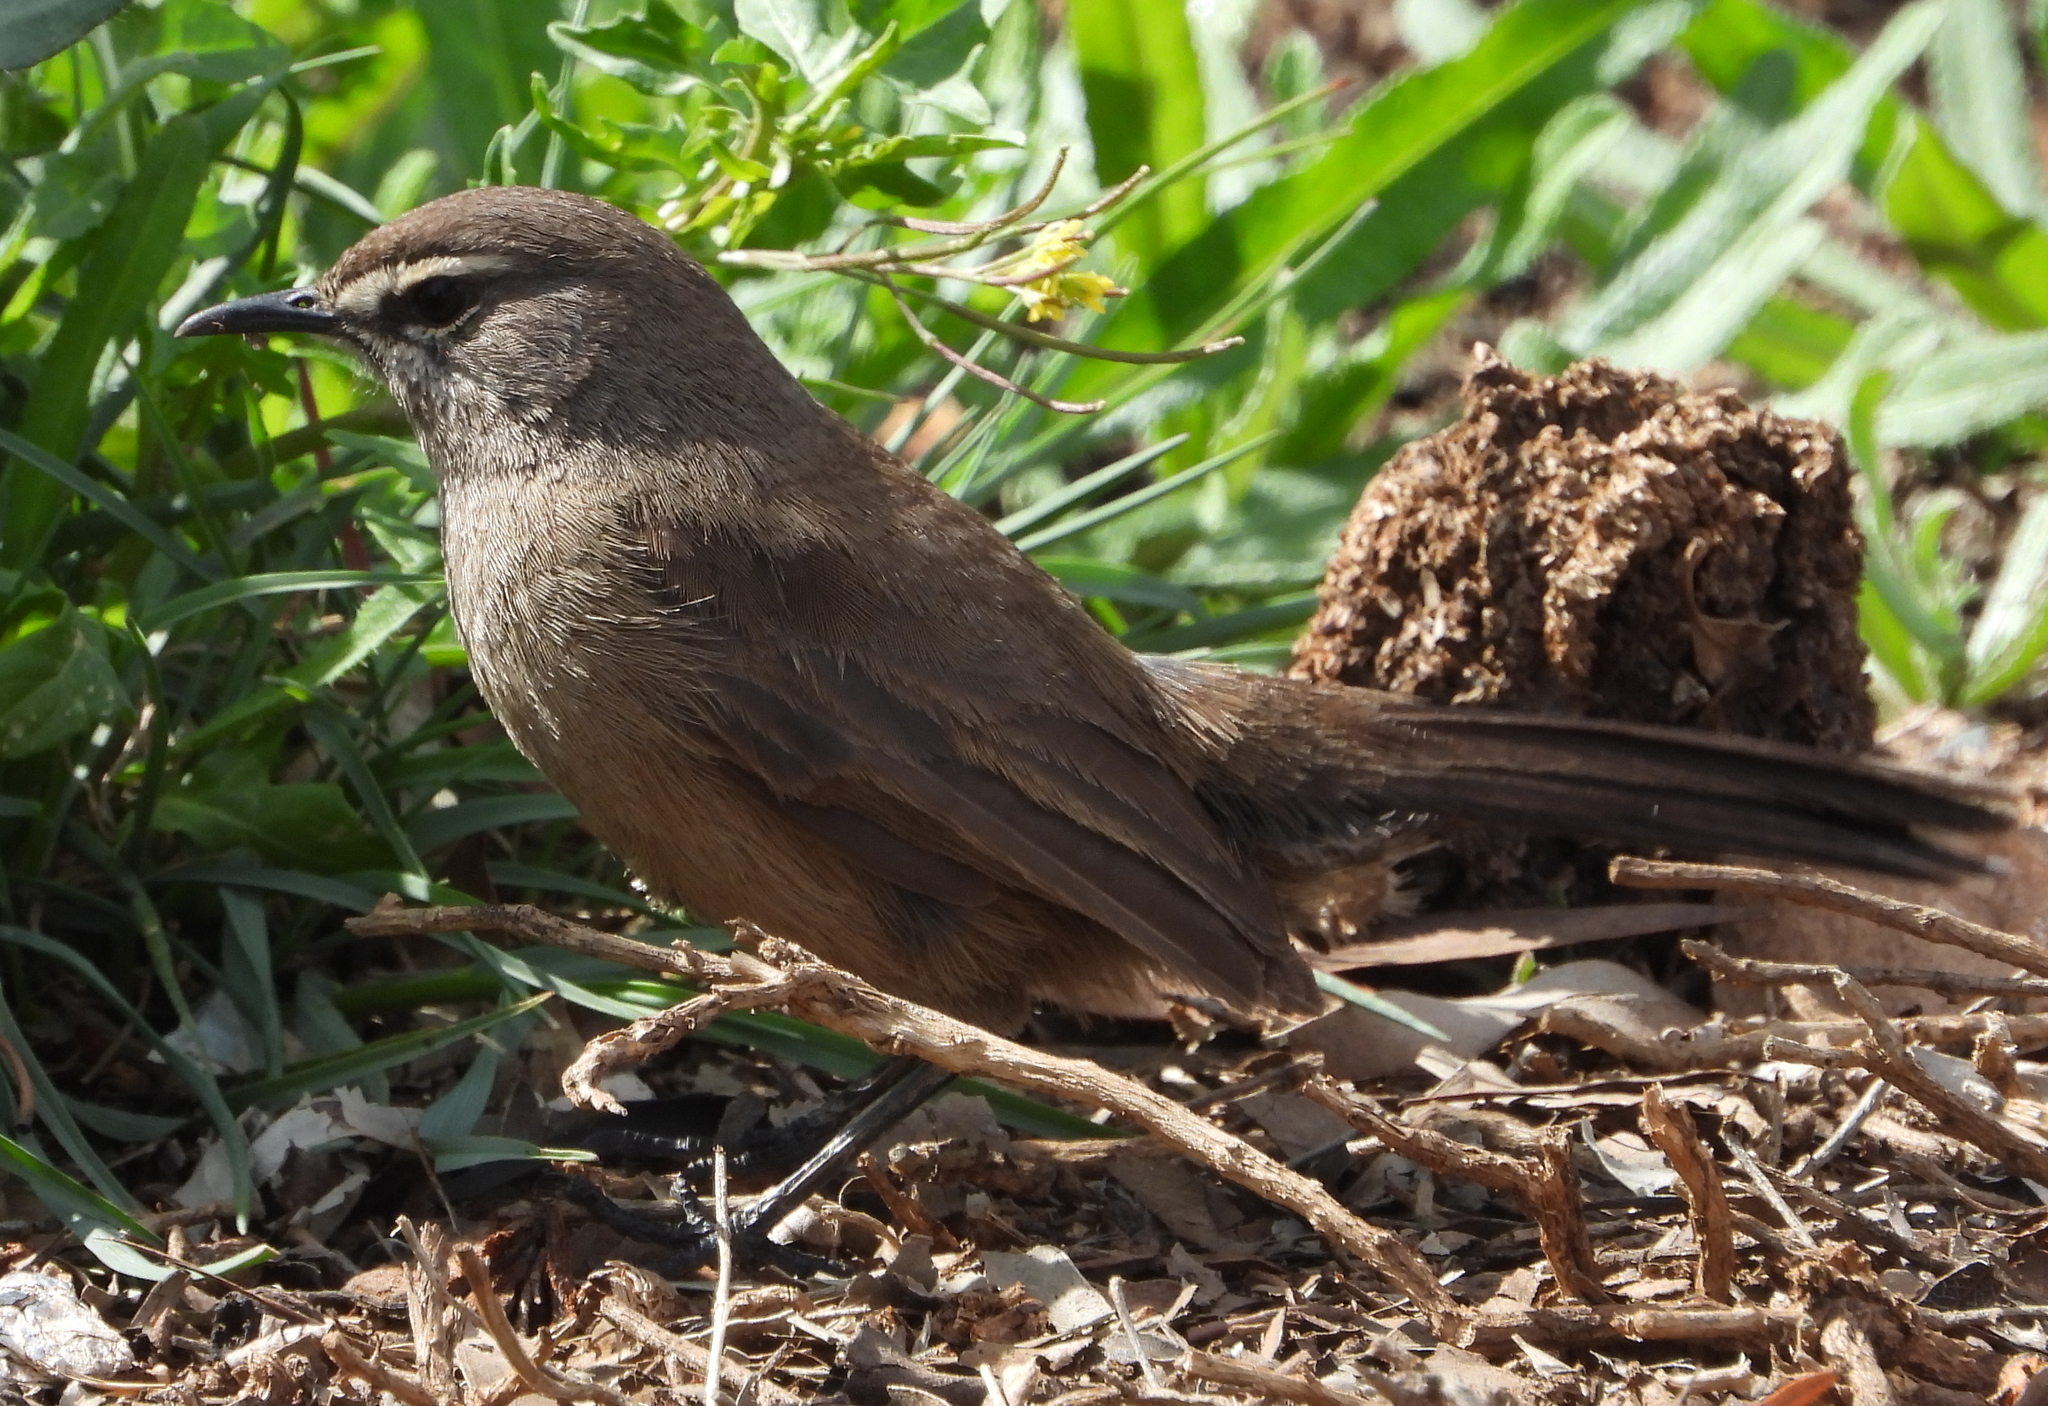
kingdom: Animalia
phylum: Chordata
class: Aves
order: Passeriformes
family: Muscicapidae
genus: Erythropygia
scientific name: Erythropygia coryphoeus
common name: Karoo scrub robin
